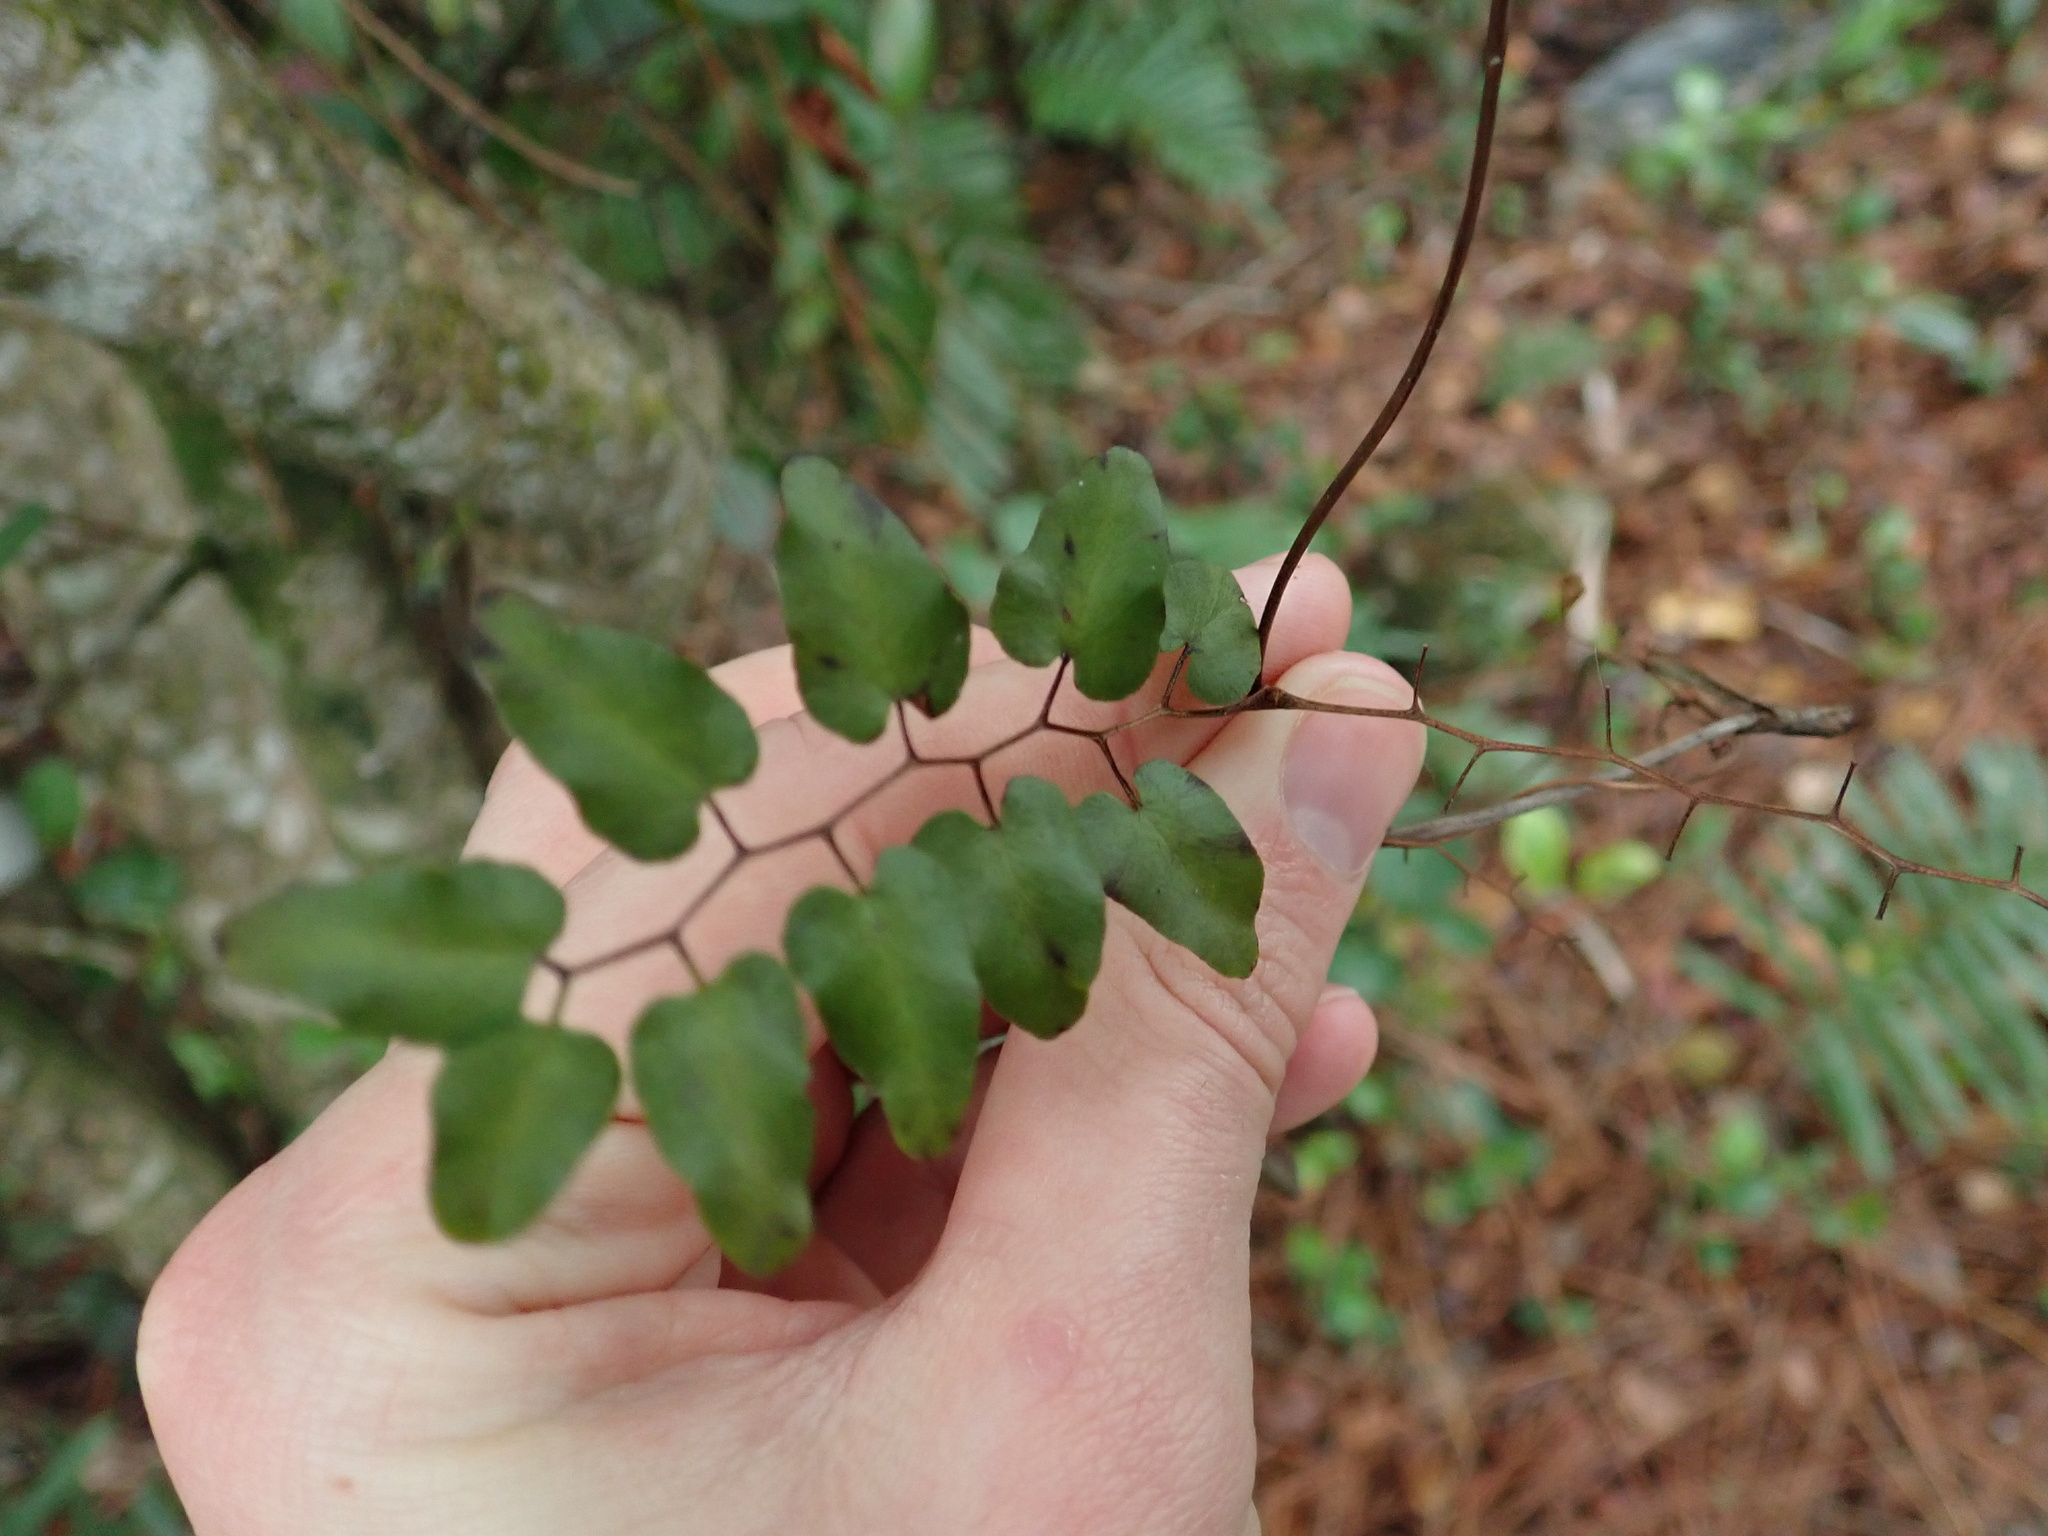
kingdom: Plantae
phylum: Tracheophyta
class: Polypodiopsida
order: Schizaeales
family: Lygodiaceae
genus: Lygodium
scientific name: Lygodium microphyllum
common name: Small-leaf climbing fern
